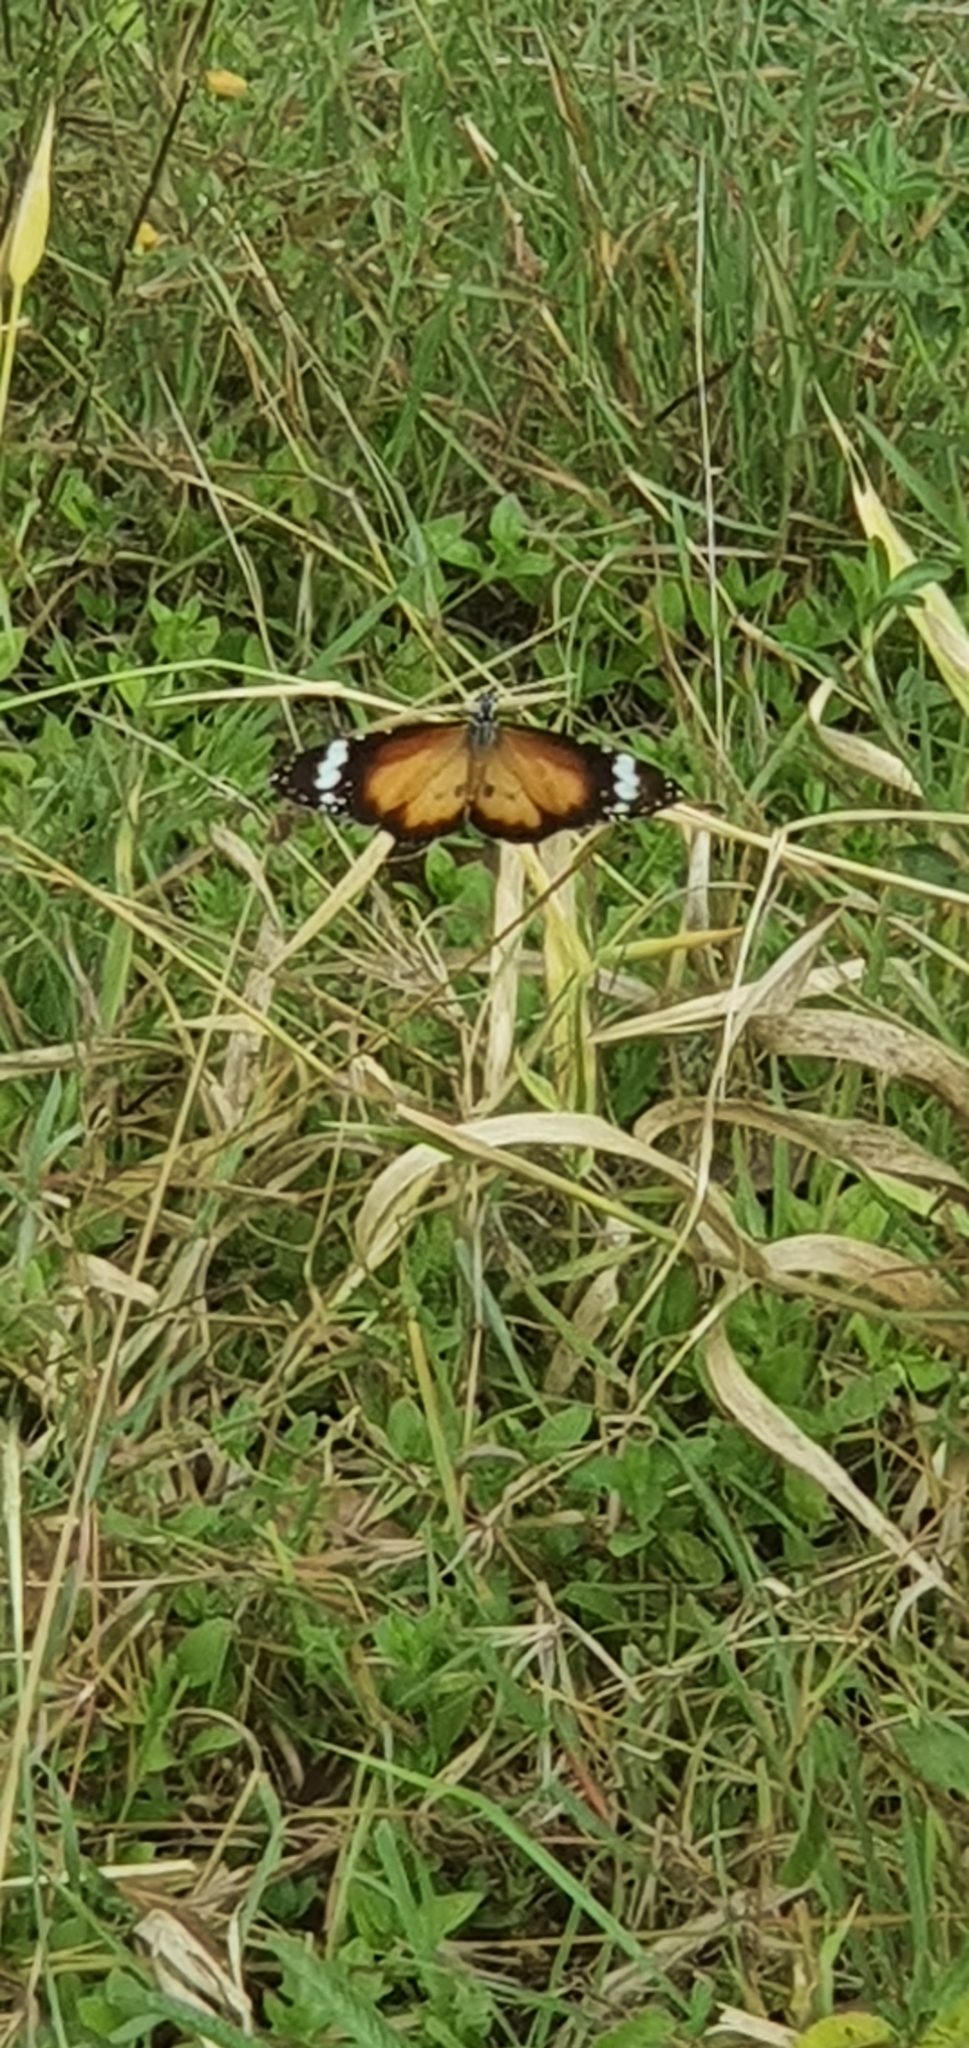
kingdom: Animalia
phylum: Arthropoda
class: Insecta
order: Lepidoptera
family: Nymphalidae
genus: Danaus
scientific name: Danaus chrysippus
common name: Plain tiger
